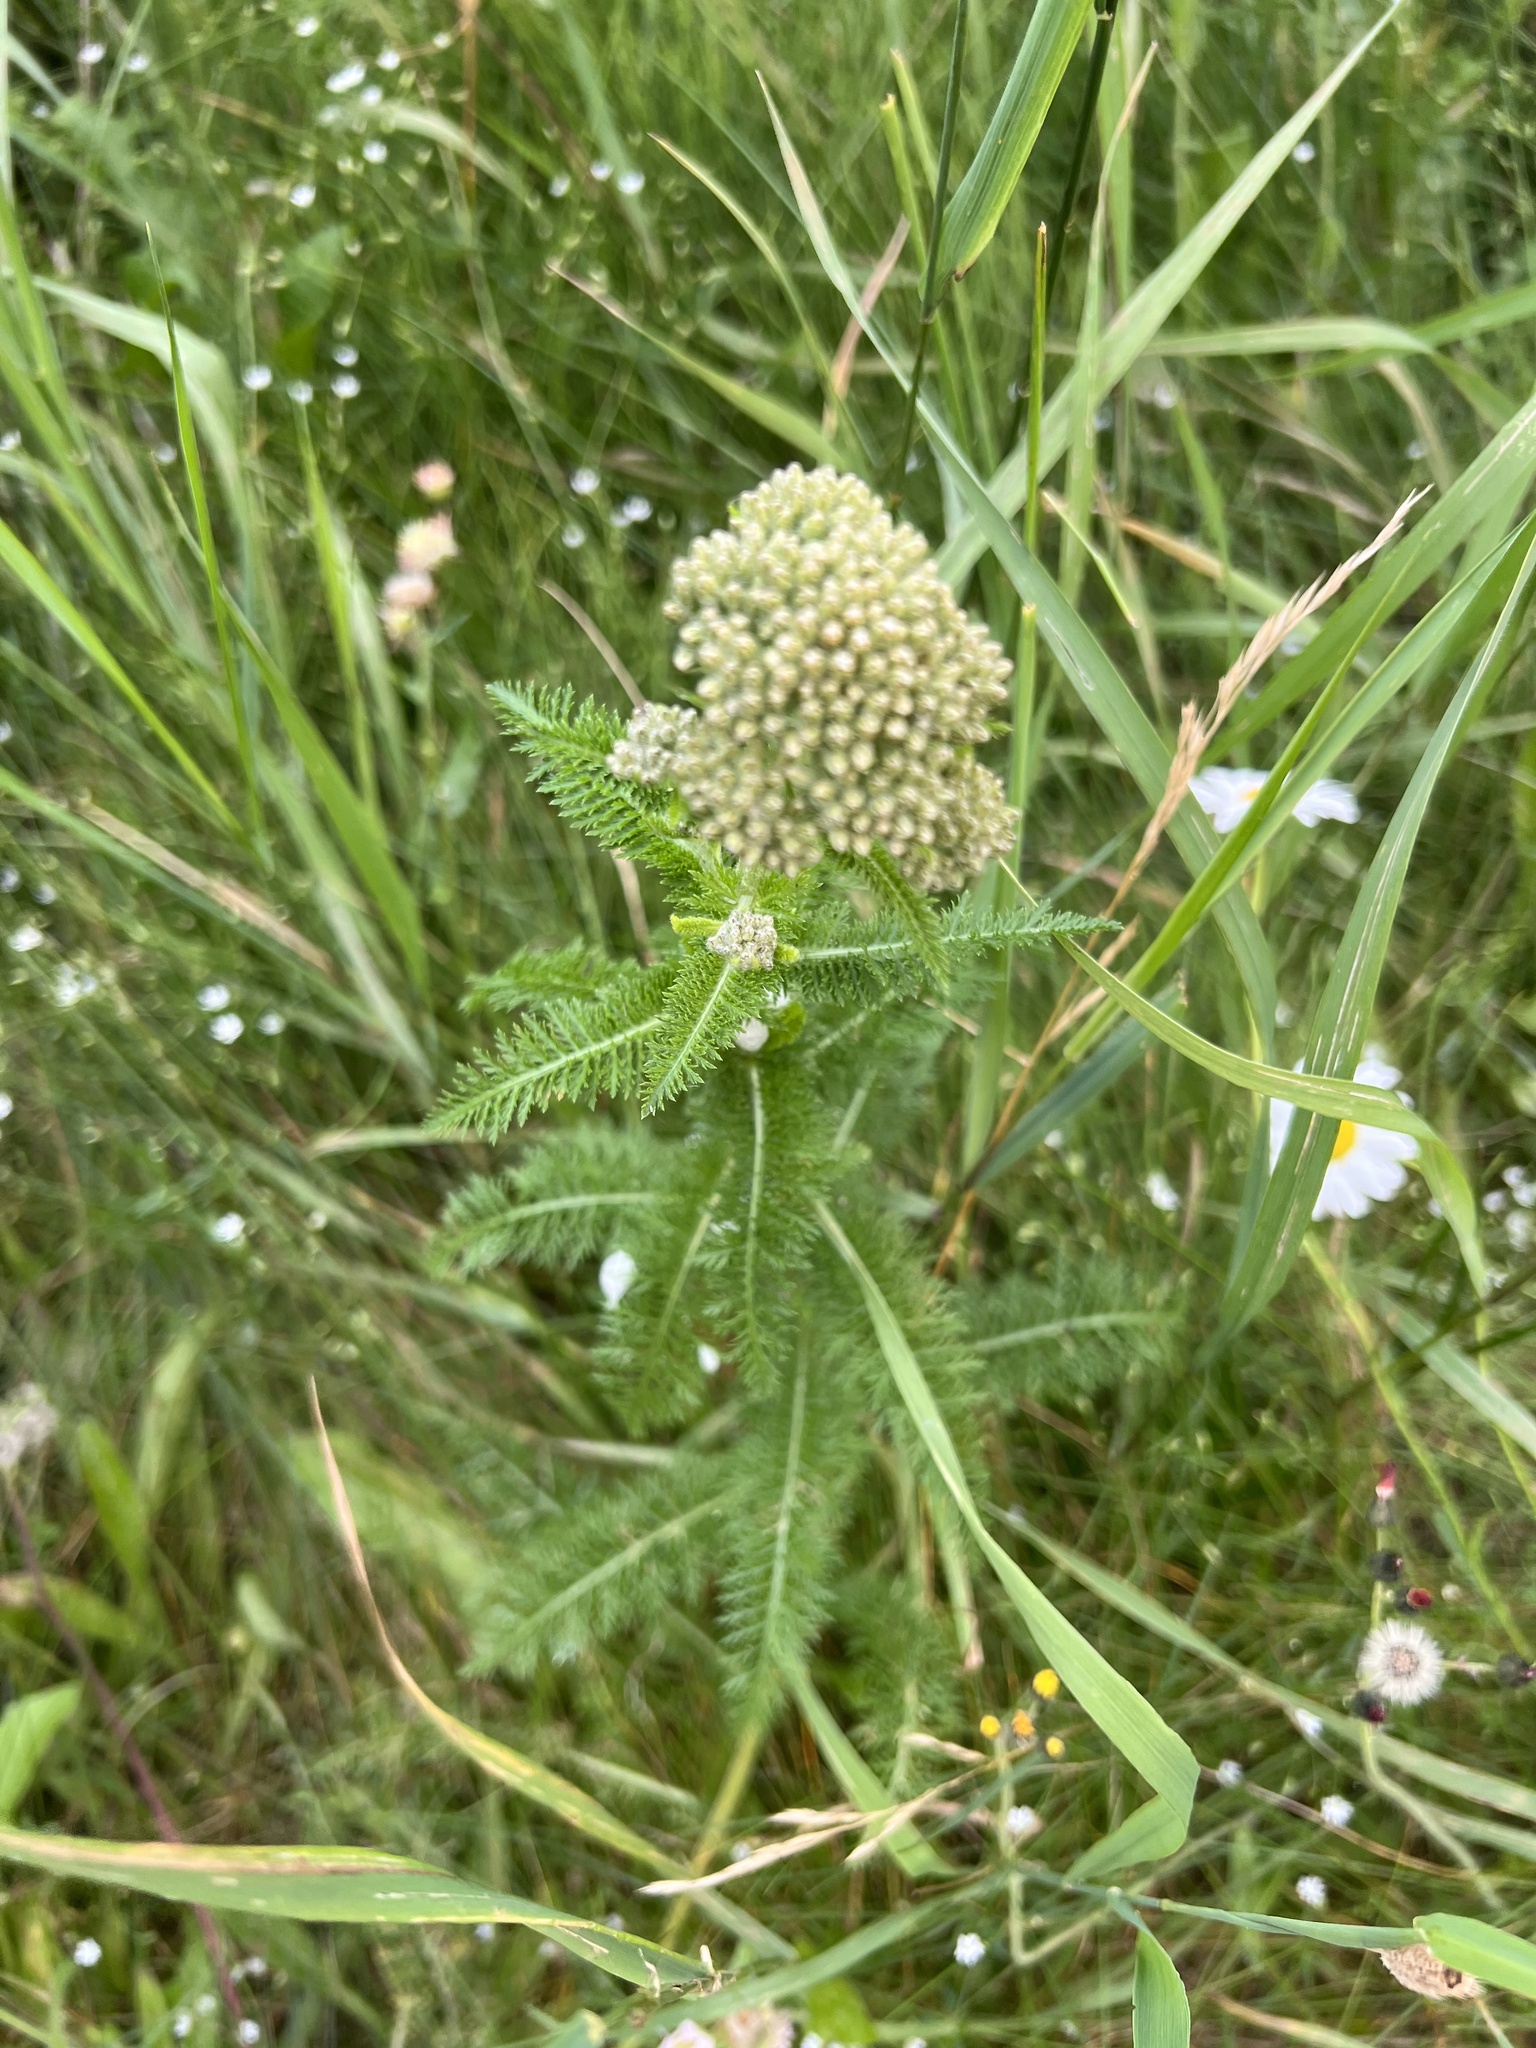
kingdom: Plantae
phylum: Tracheophyta
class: Magnoliopsida
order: Asterales
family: Asteraceae
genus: Achillea
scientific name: Achillea millefolium
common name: Yarrow
